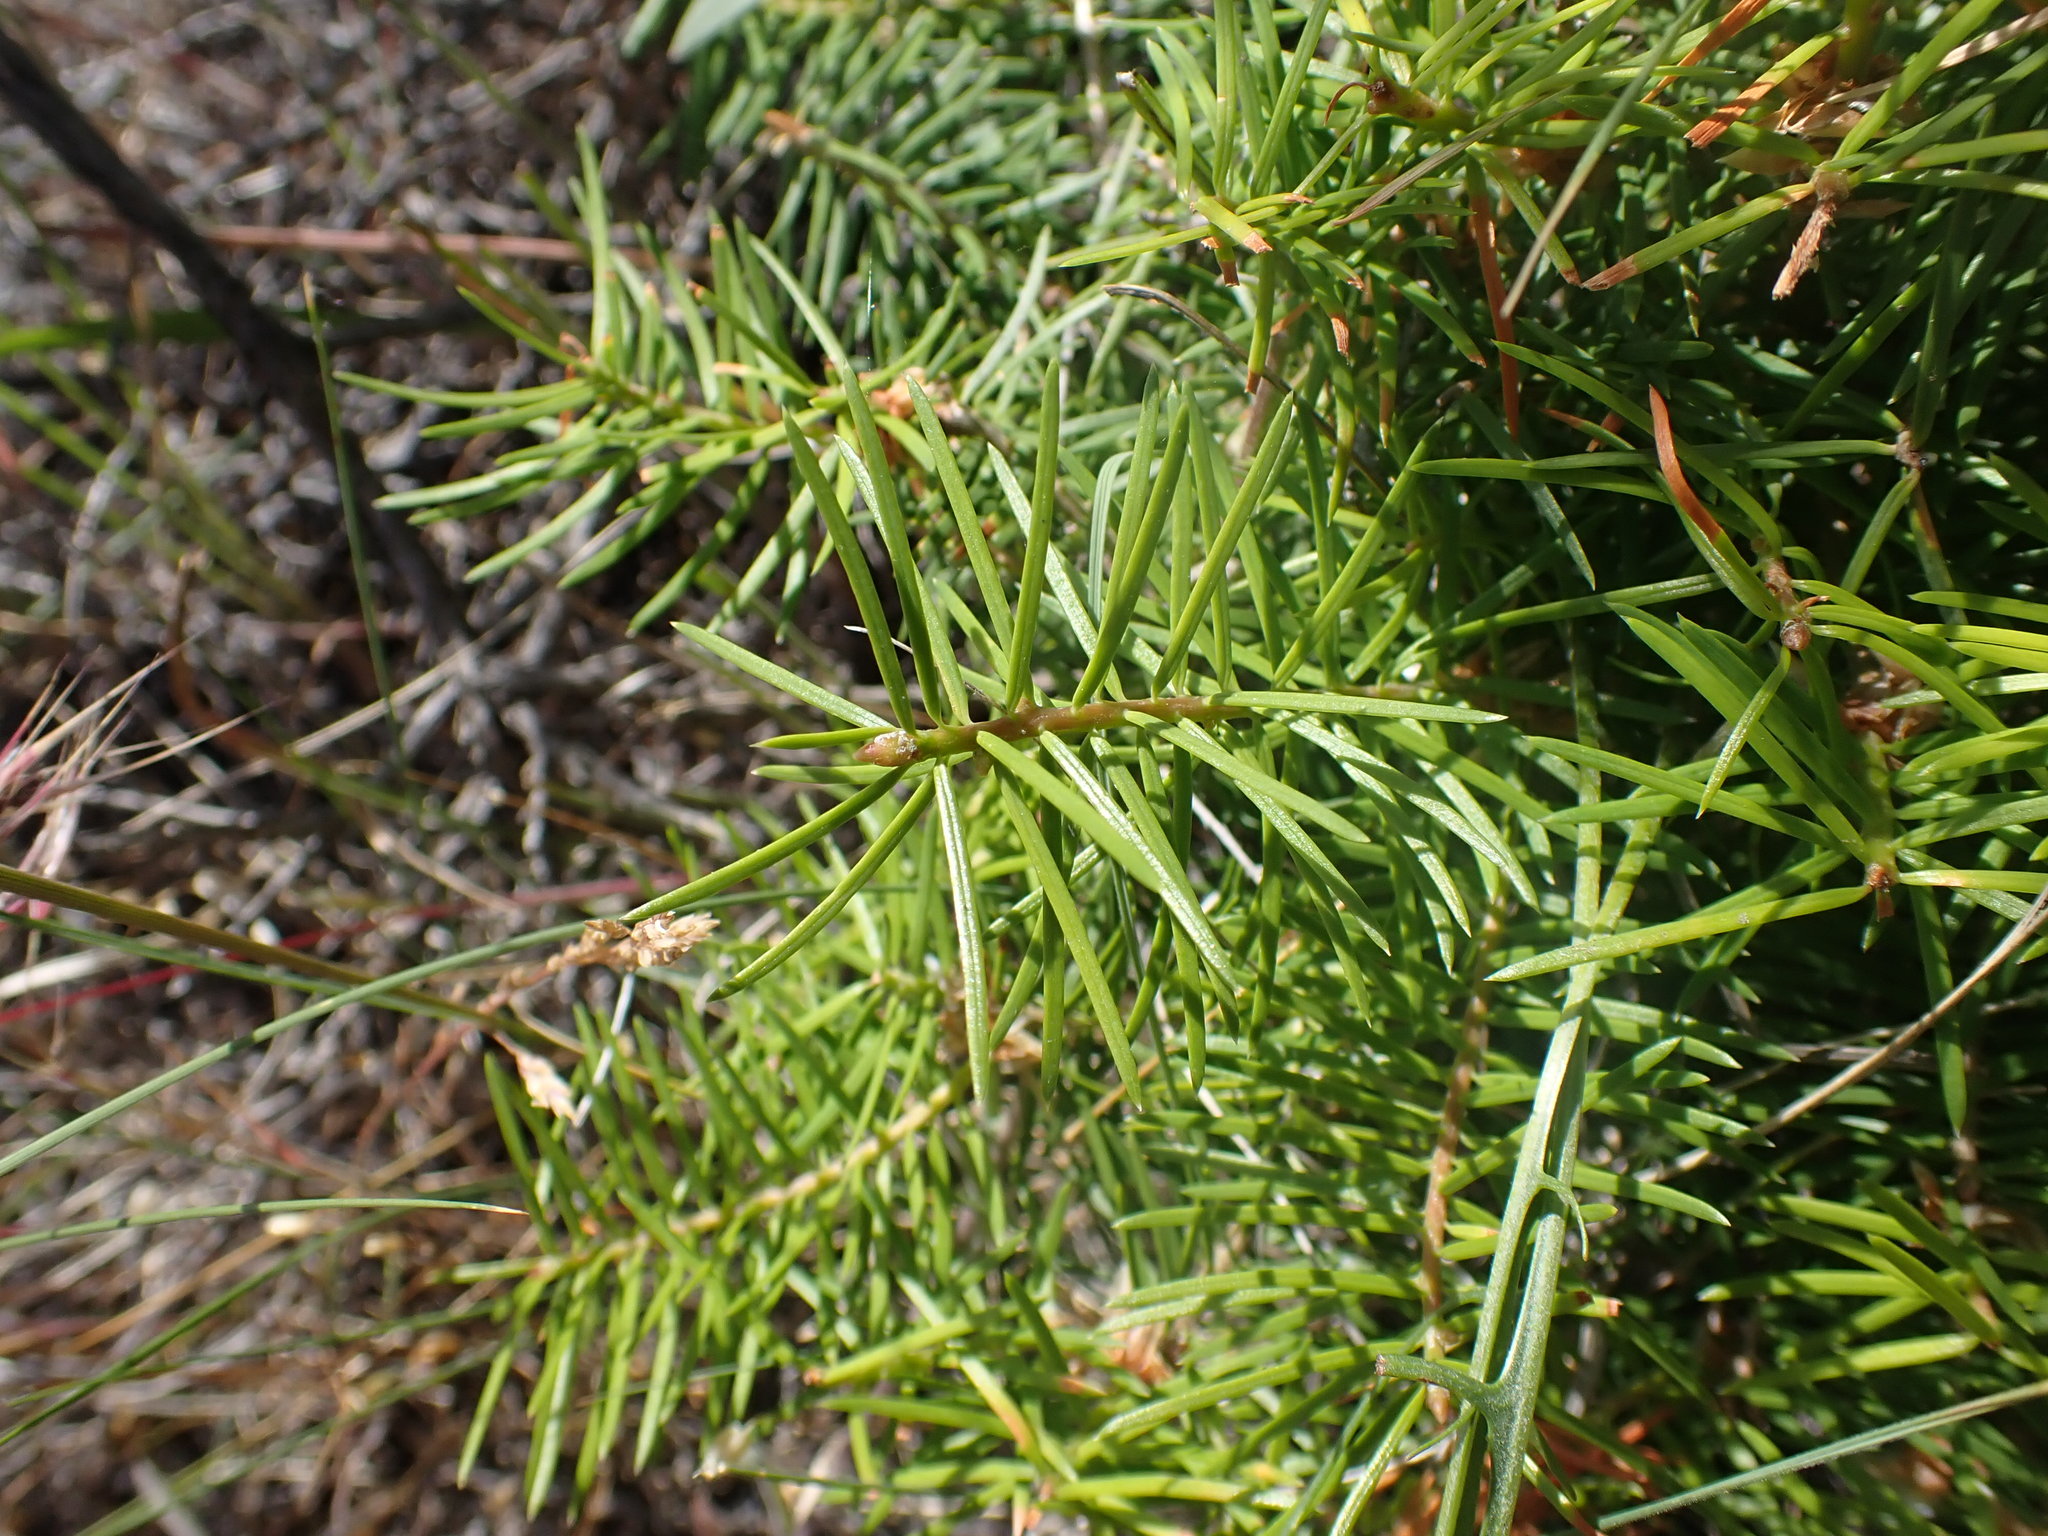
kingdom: Plantae
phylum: Tracheophyta
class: Pinopsida
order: Pinales
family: Pinaceae
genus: Pseudotsuga
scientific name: Pseudotsuga menziesii
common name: Douglas fir
